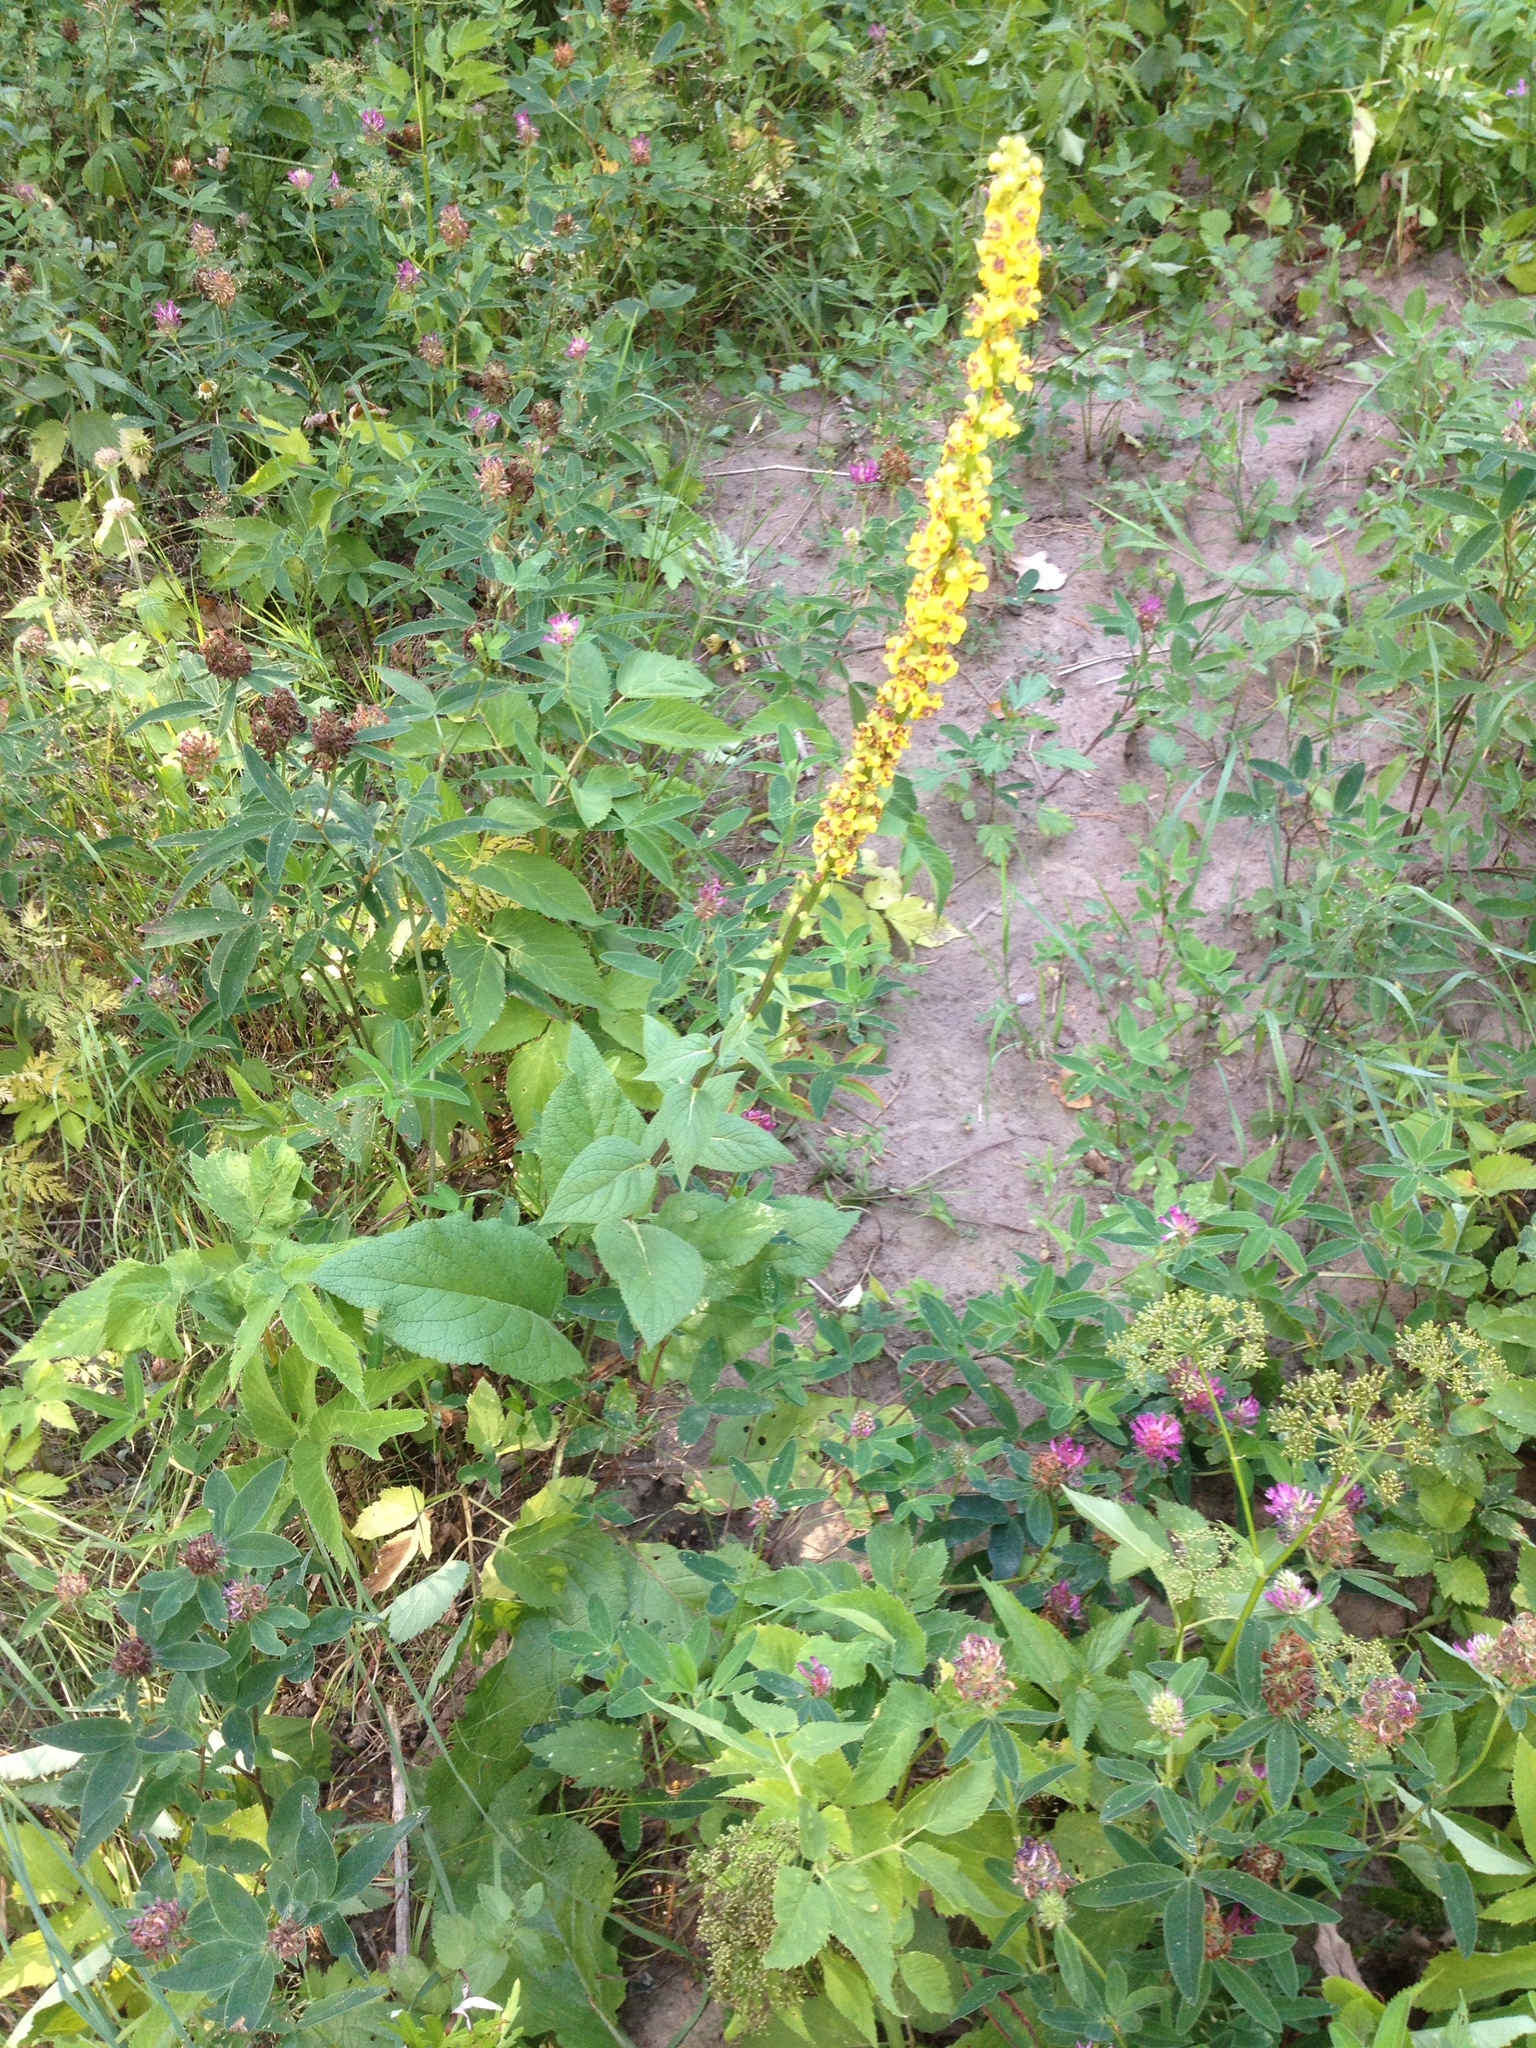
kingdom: Plantae
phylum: Tracheophyta
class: Magnoliopsida
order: Lamiales
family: Scrophulariaceae
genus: Verbascum
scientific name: Verbascum nigrum
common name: Dark mullein
